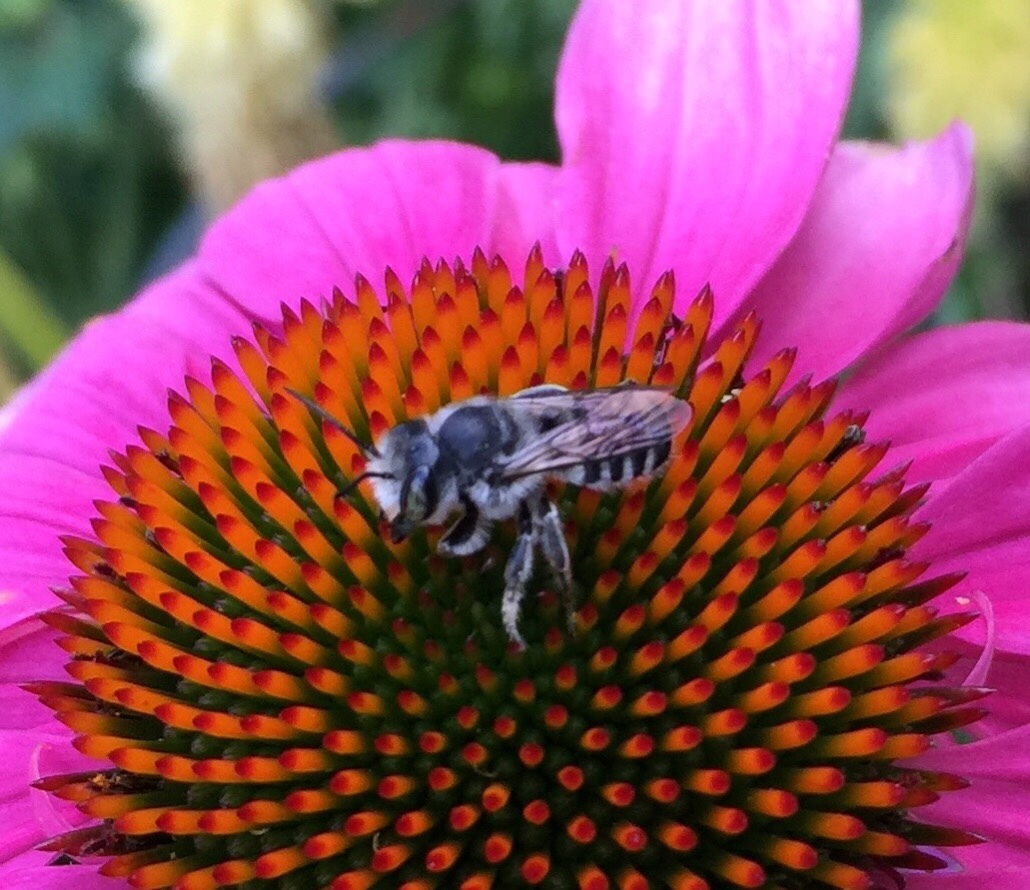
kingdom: Animalia
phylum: Arthropoda
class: Insecta
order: Hymenoptera
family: Megachilidae
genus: Megachile
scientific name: Megachile
